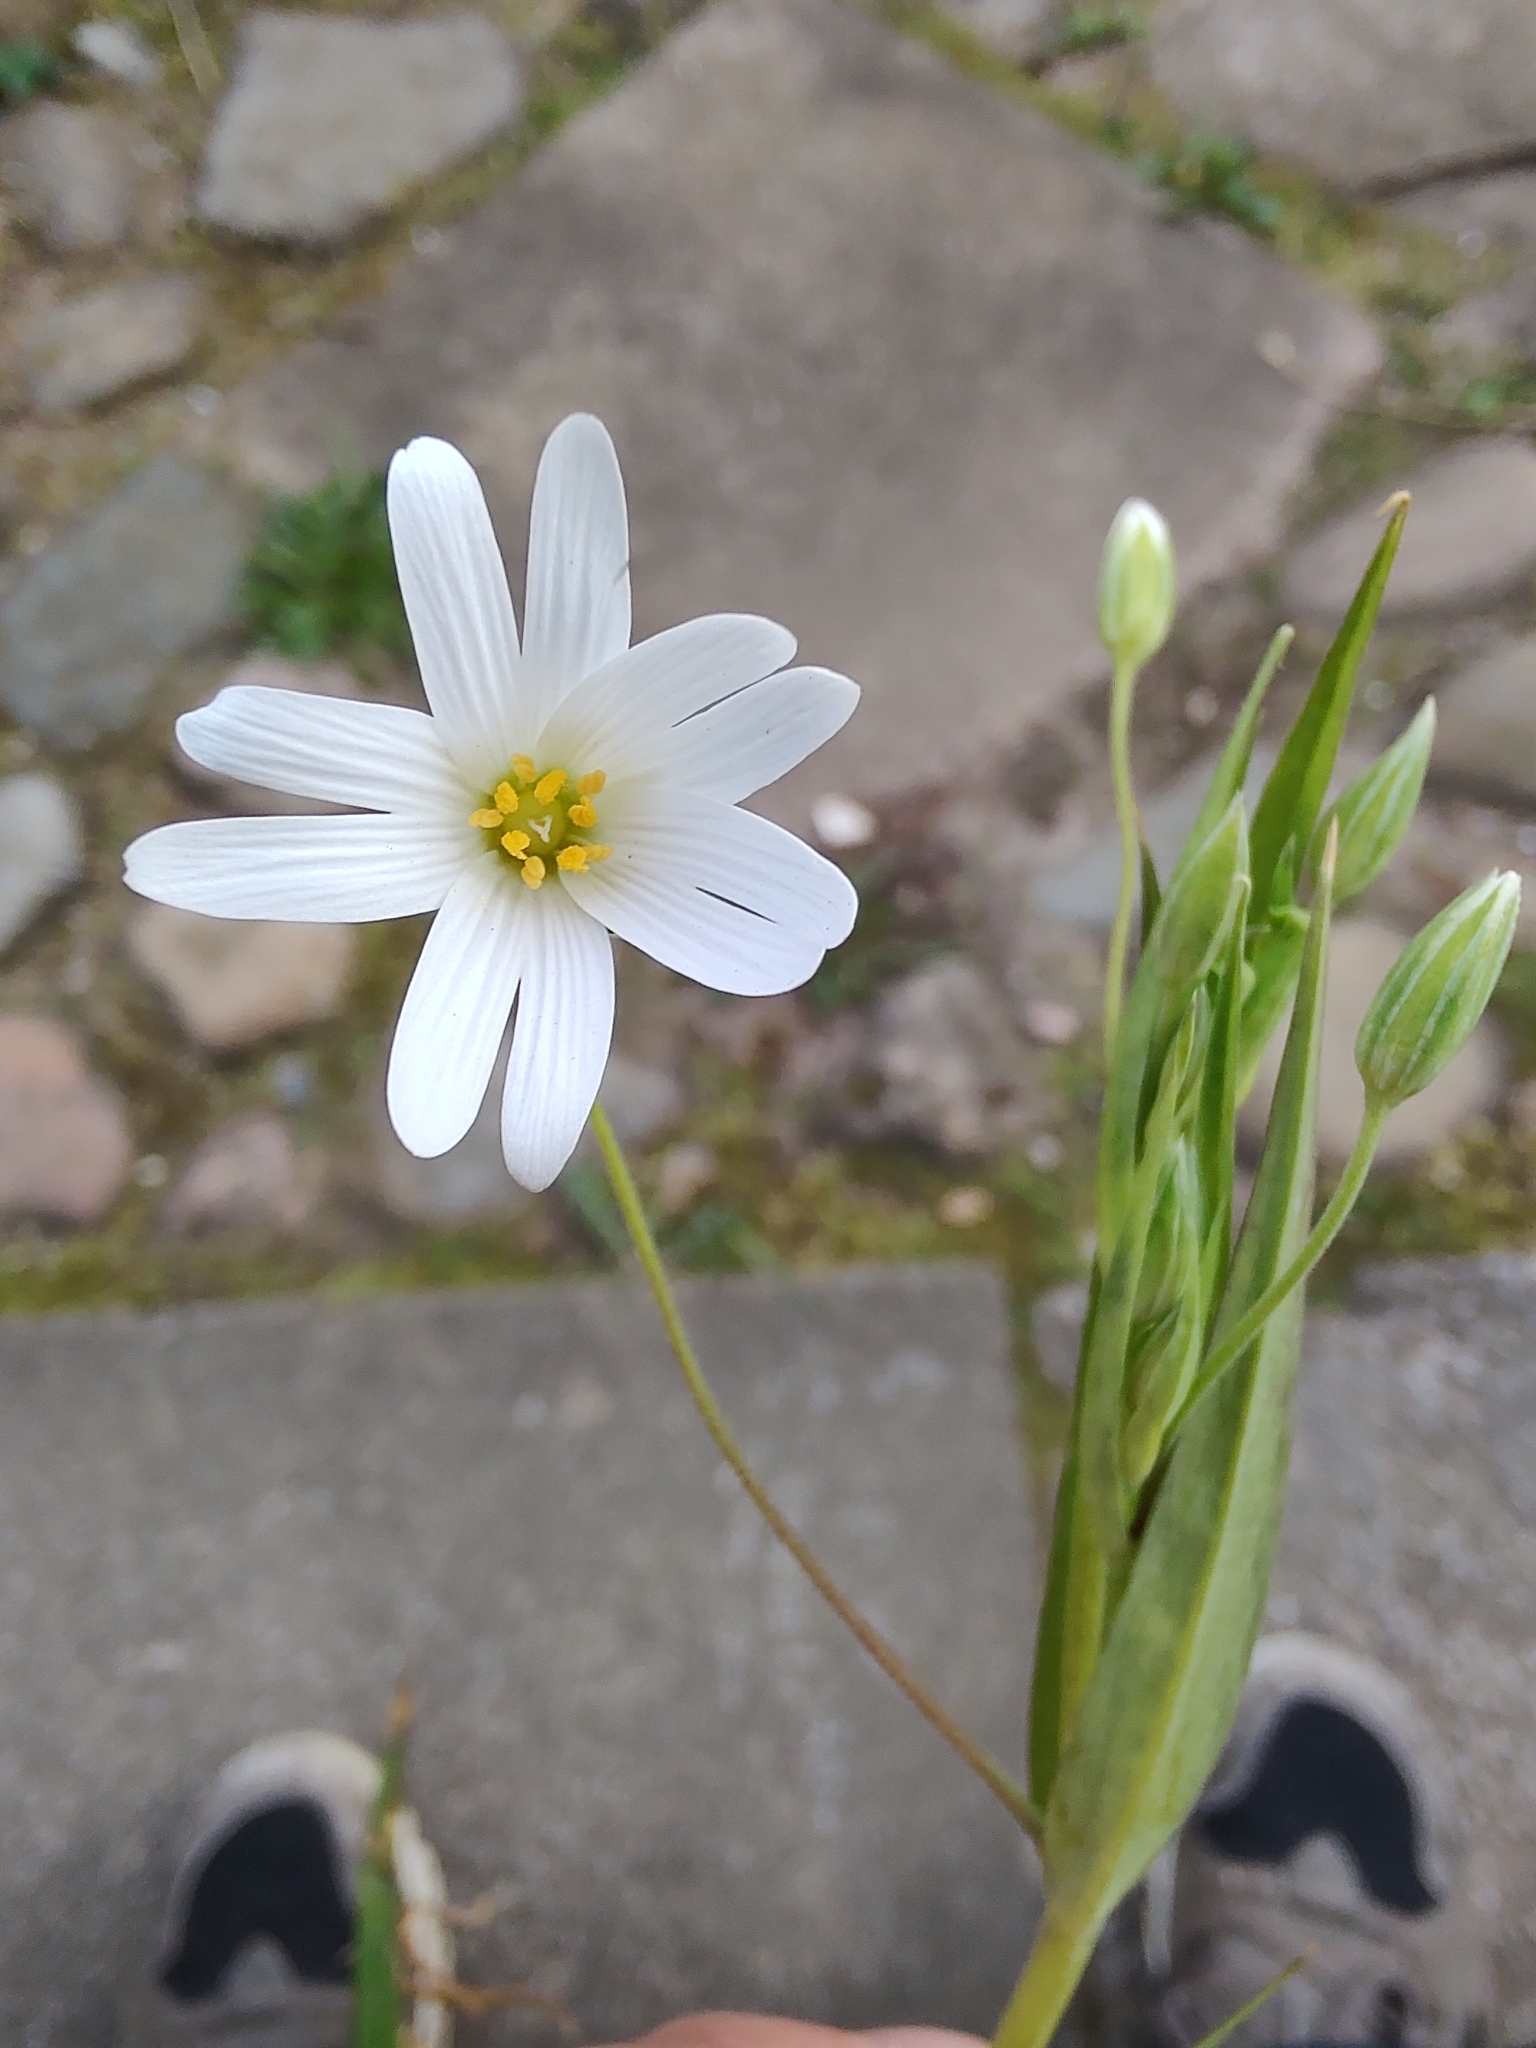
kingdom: Plantae
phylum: Tracheophyta
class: Magnoliopsida
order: Caryophyllales
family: Caryophyllaceae
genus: Rabelera
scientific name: Rabelera holostea
